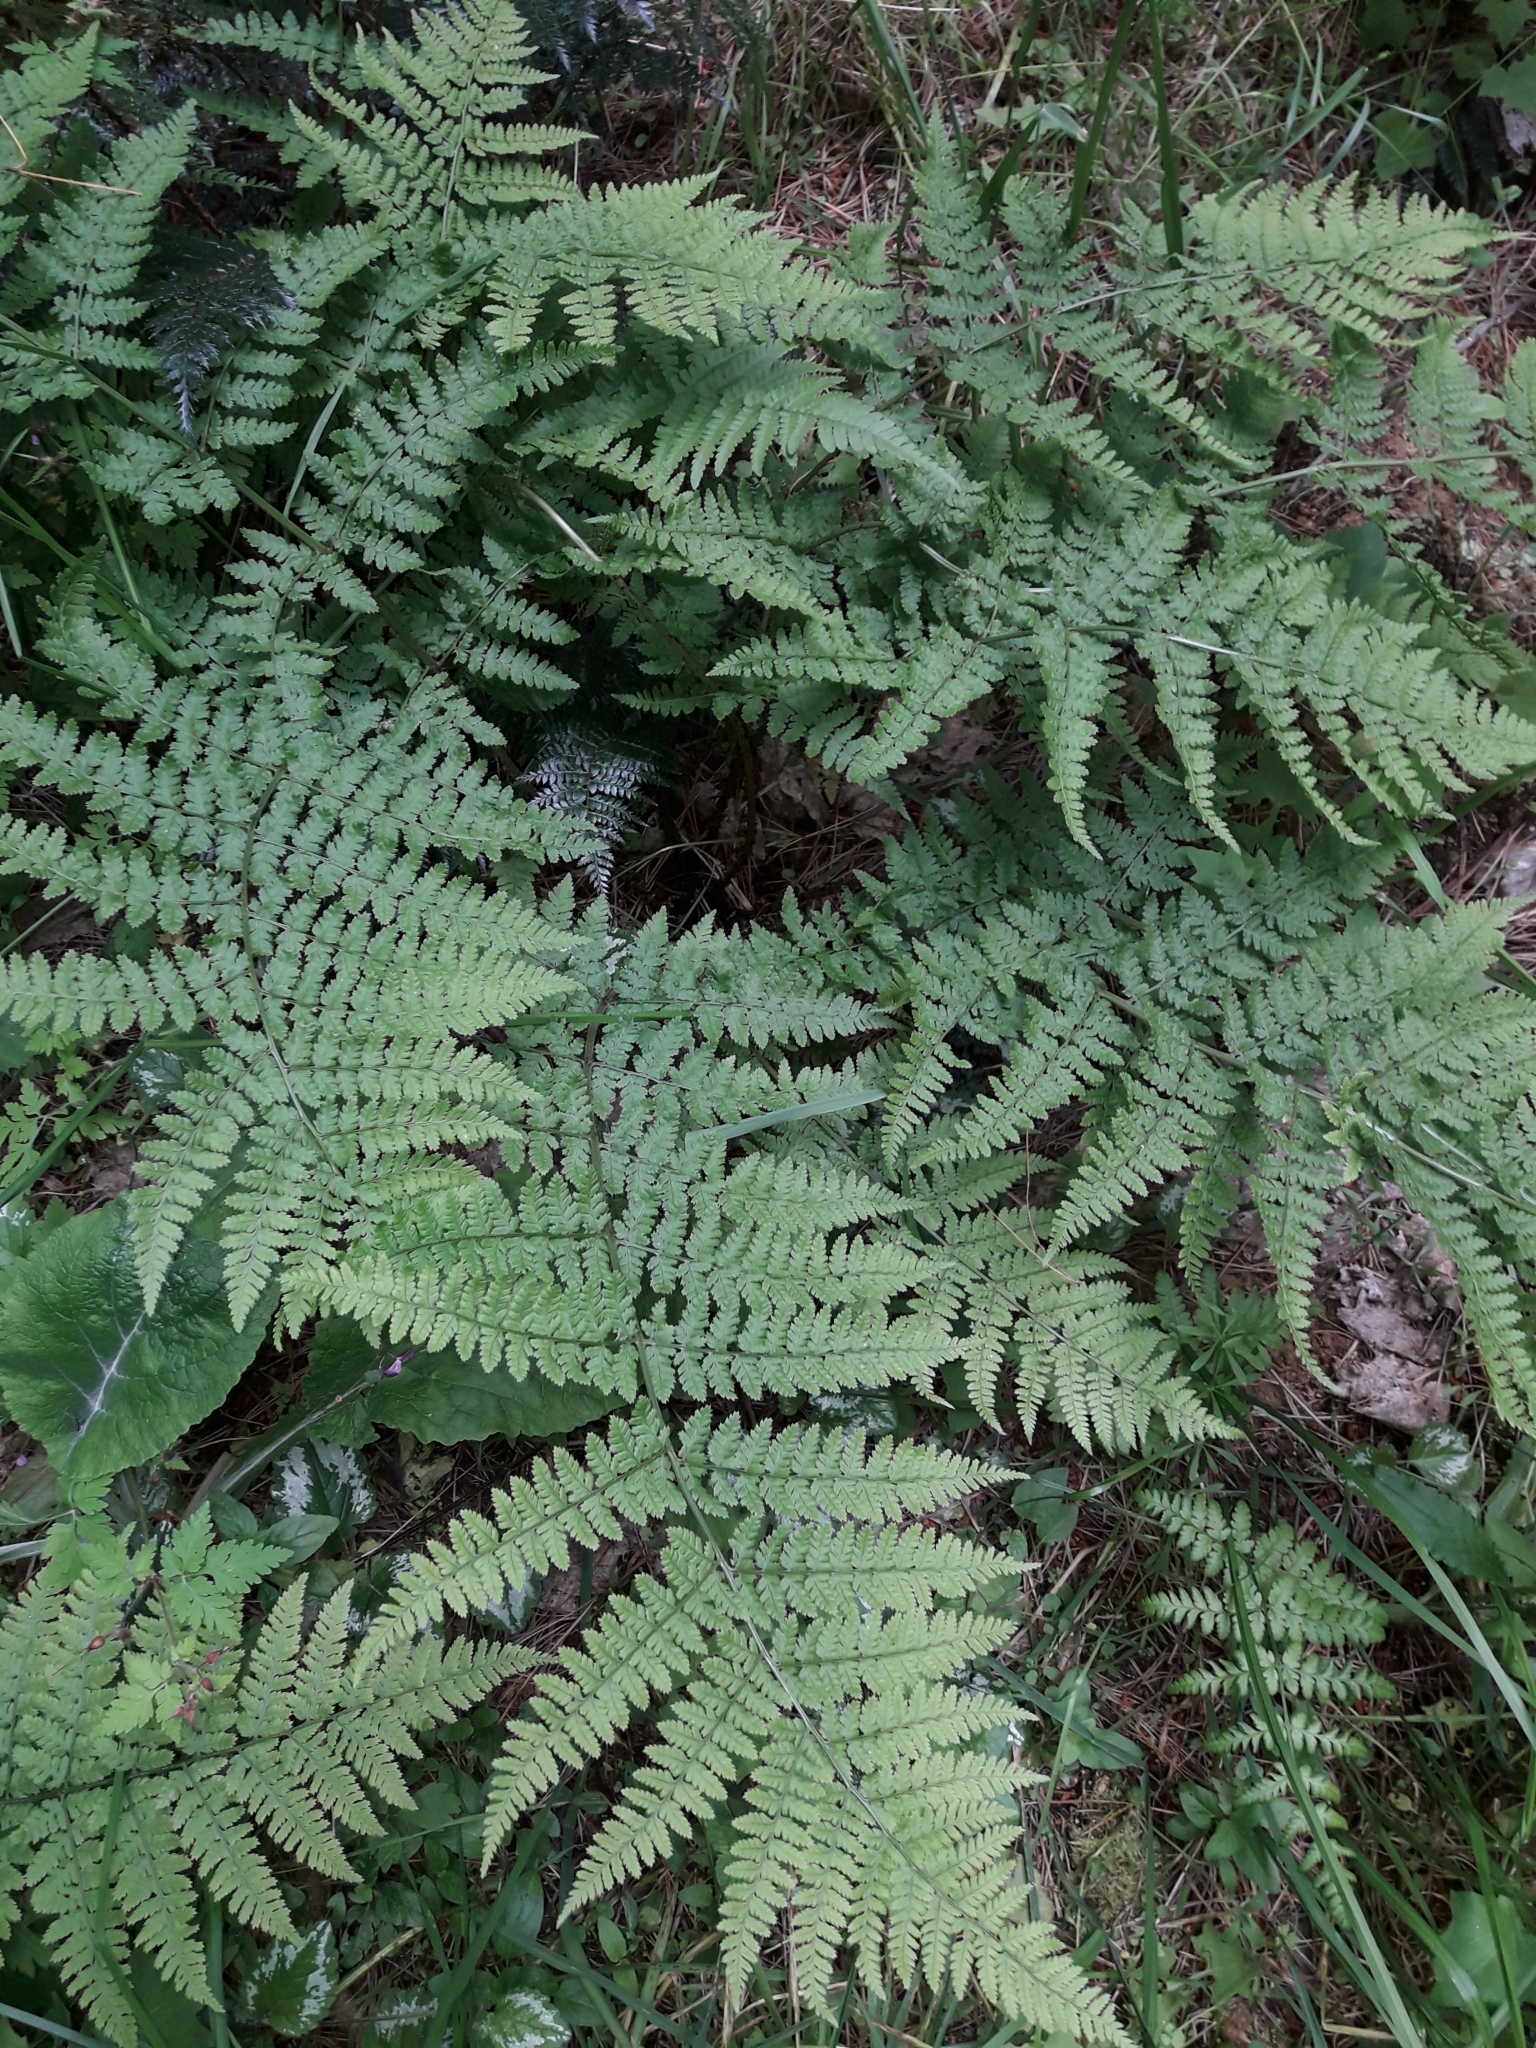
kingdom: Plantae
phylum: Tracheophyta
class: Polypodiopsida
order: Polypodiales
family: Dryopteridaceae
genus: Dryopteris
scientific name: Dryopteris dilatata
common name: Broad buckler-fern
